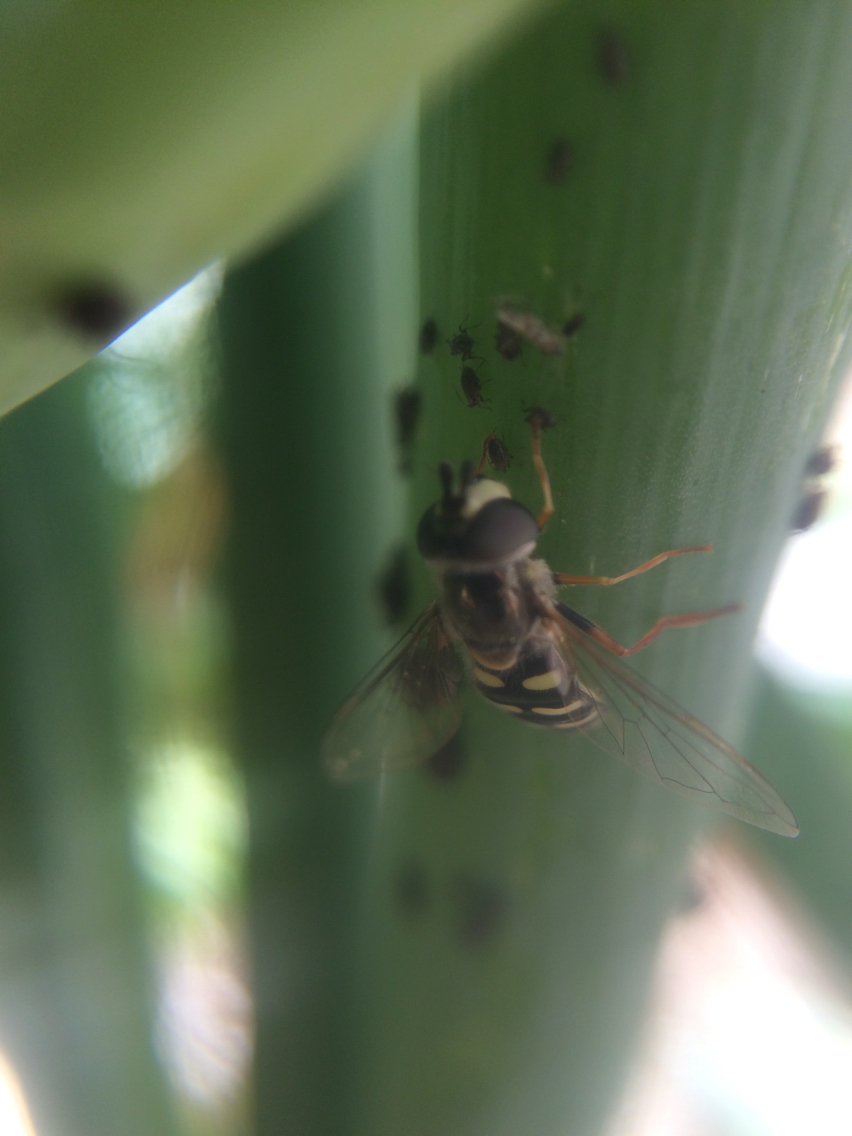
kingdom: Animalia
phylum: Arthropoda
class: Insecta
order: Diptera
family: Syrphidae
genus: Eupeodes
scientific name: Eupeodes volucris
